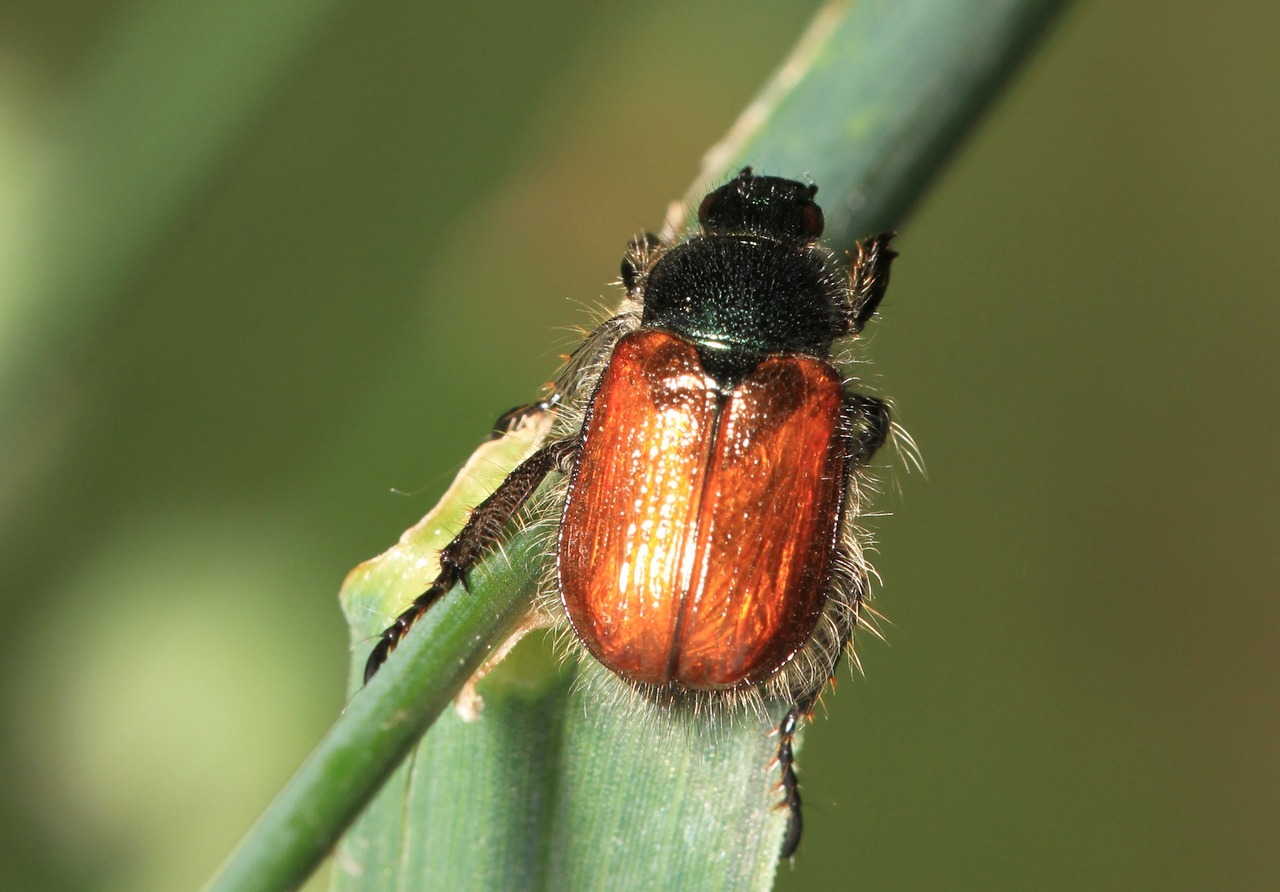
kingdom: Animalia
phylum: Arthropoda
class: Insecta
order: Coleoptera
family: Scarabaeidae
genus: Phyllopertha
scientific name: Phyllopertha horticola
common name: Garden chafer
